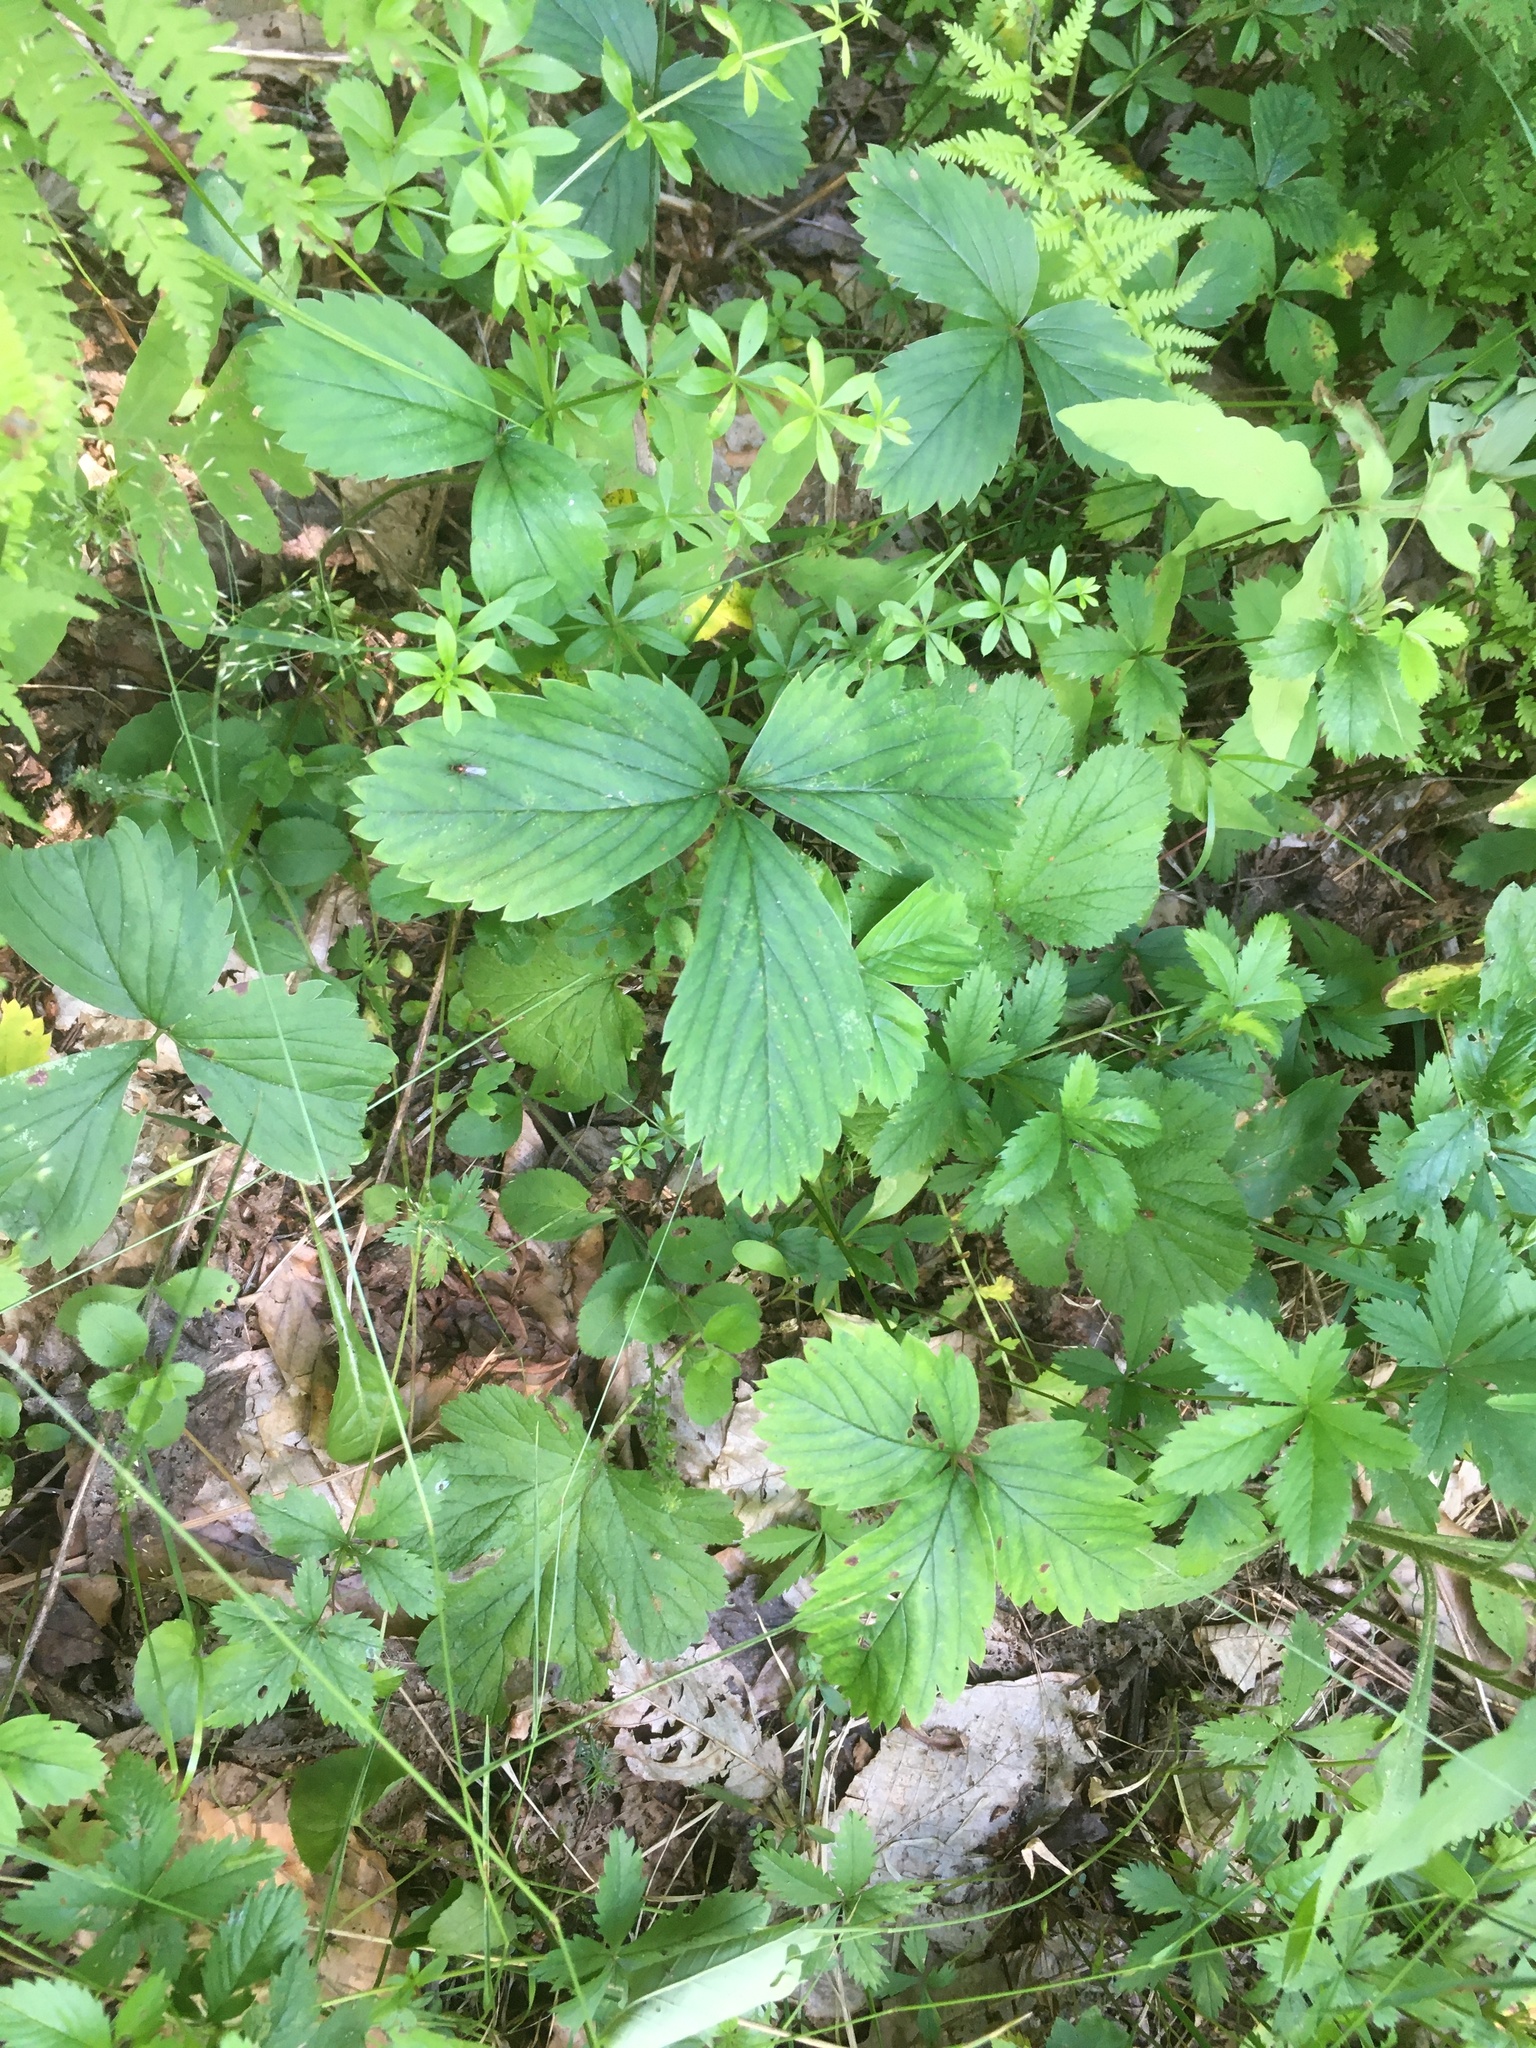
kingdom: Plantae
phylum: Tracheophyta
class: Magnoliopsida
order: Rosales
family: Rosaceae
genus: Fragaria
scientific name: Fragaria virginiana
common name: Thickleaved wild strawberry
